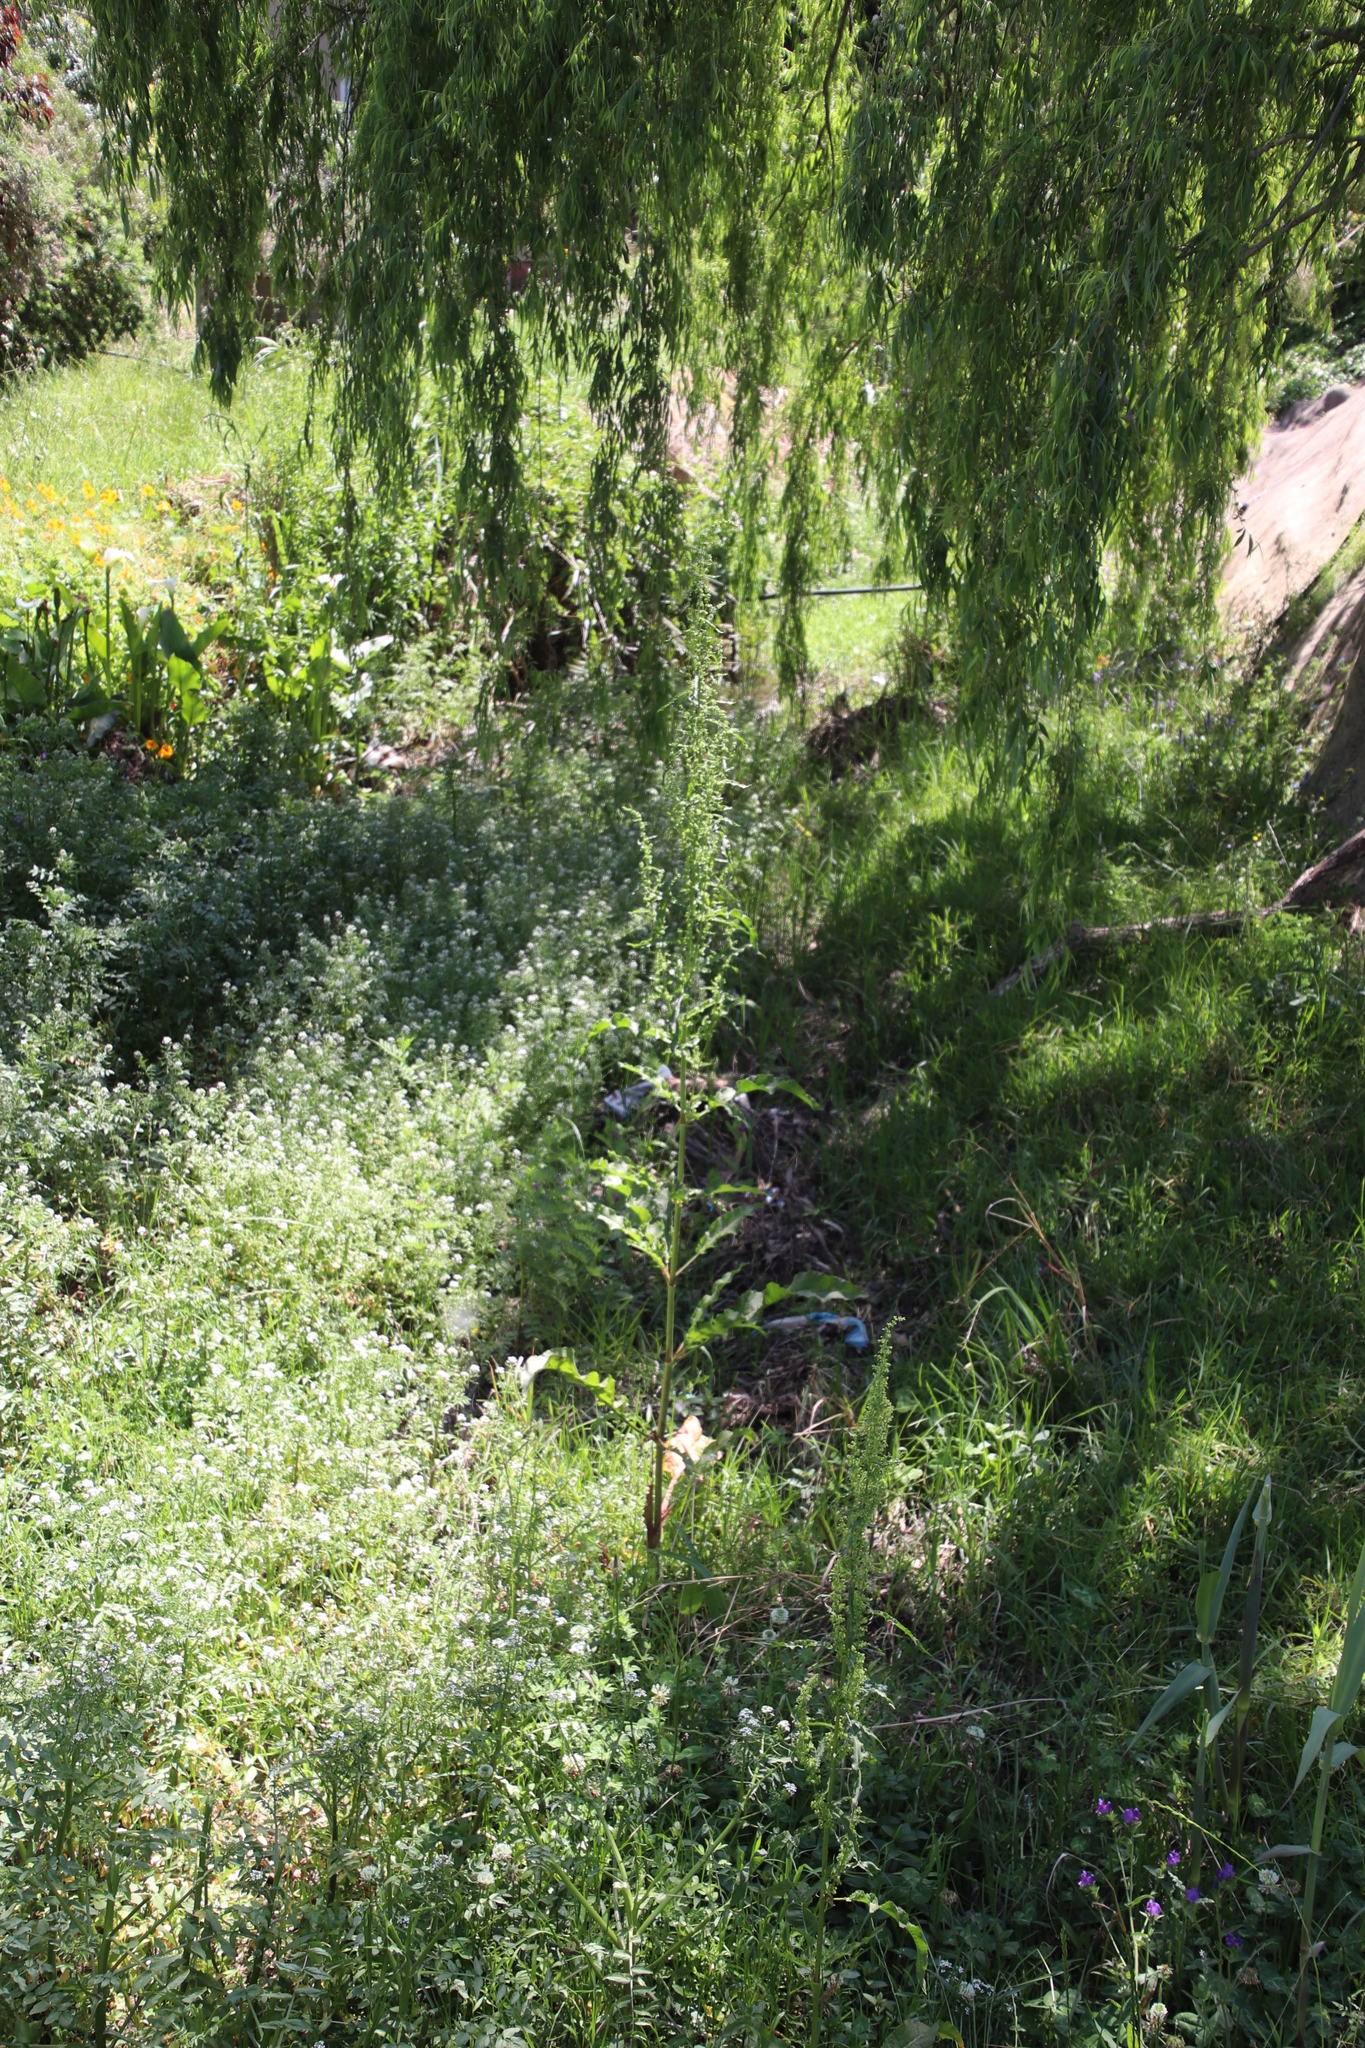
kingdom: Plantae
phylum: Tracheophyta
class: Magnoliopsida
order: Caryophyllales
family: Polygonaceae
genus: Rumex
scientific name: Rumex crispus
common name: Curled dock
